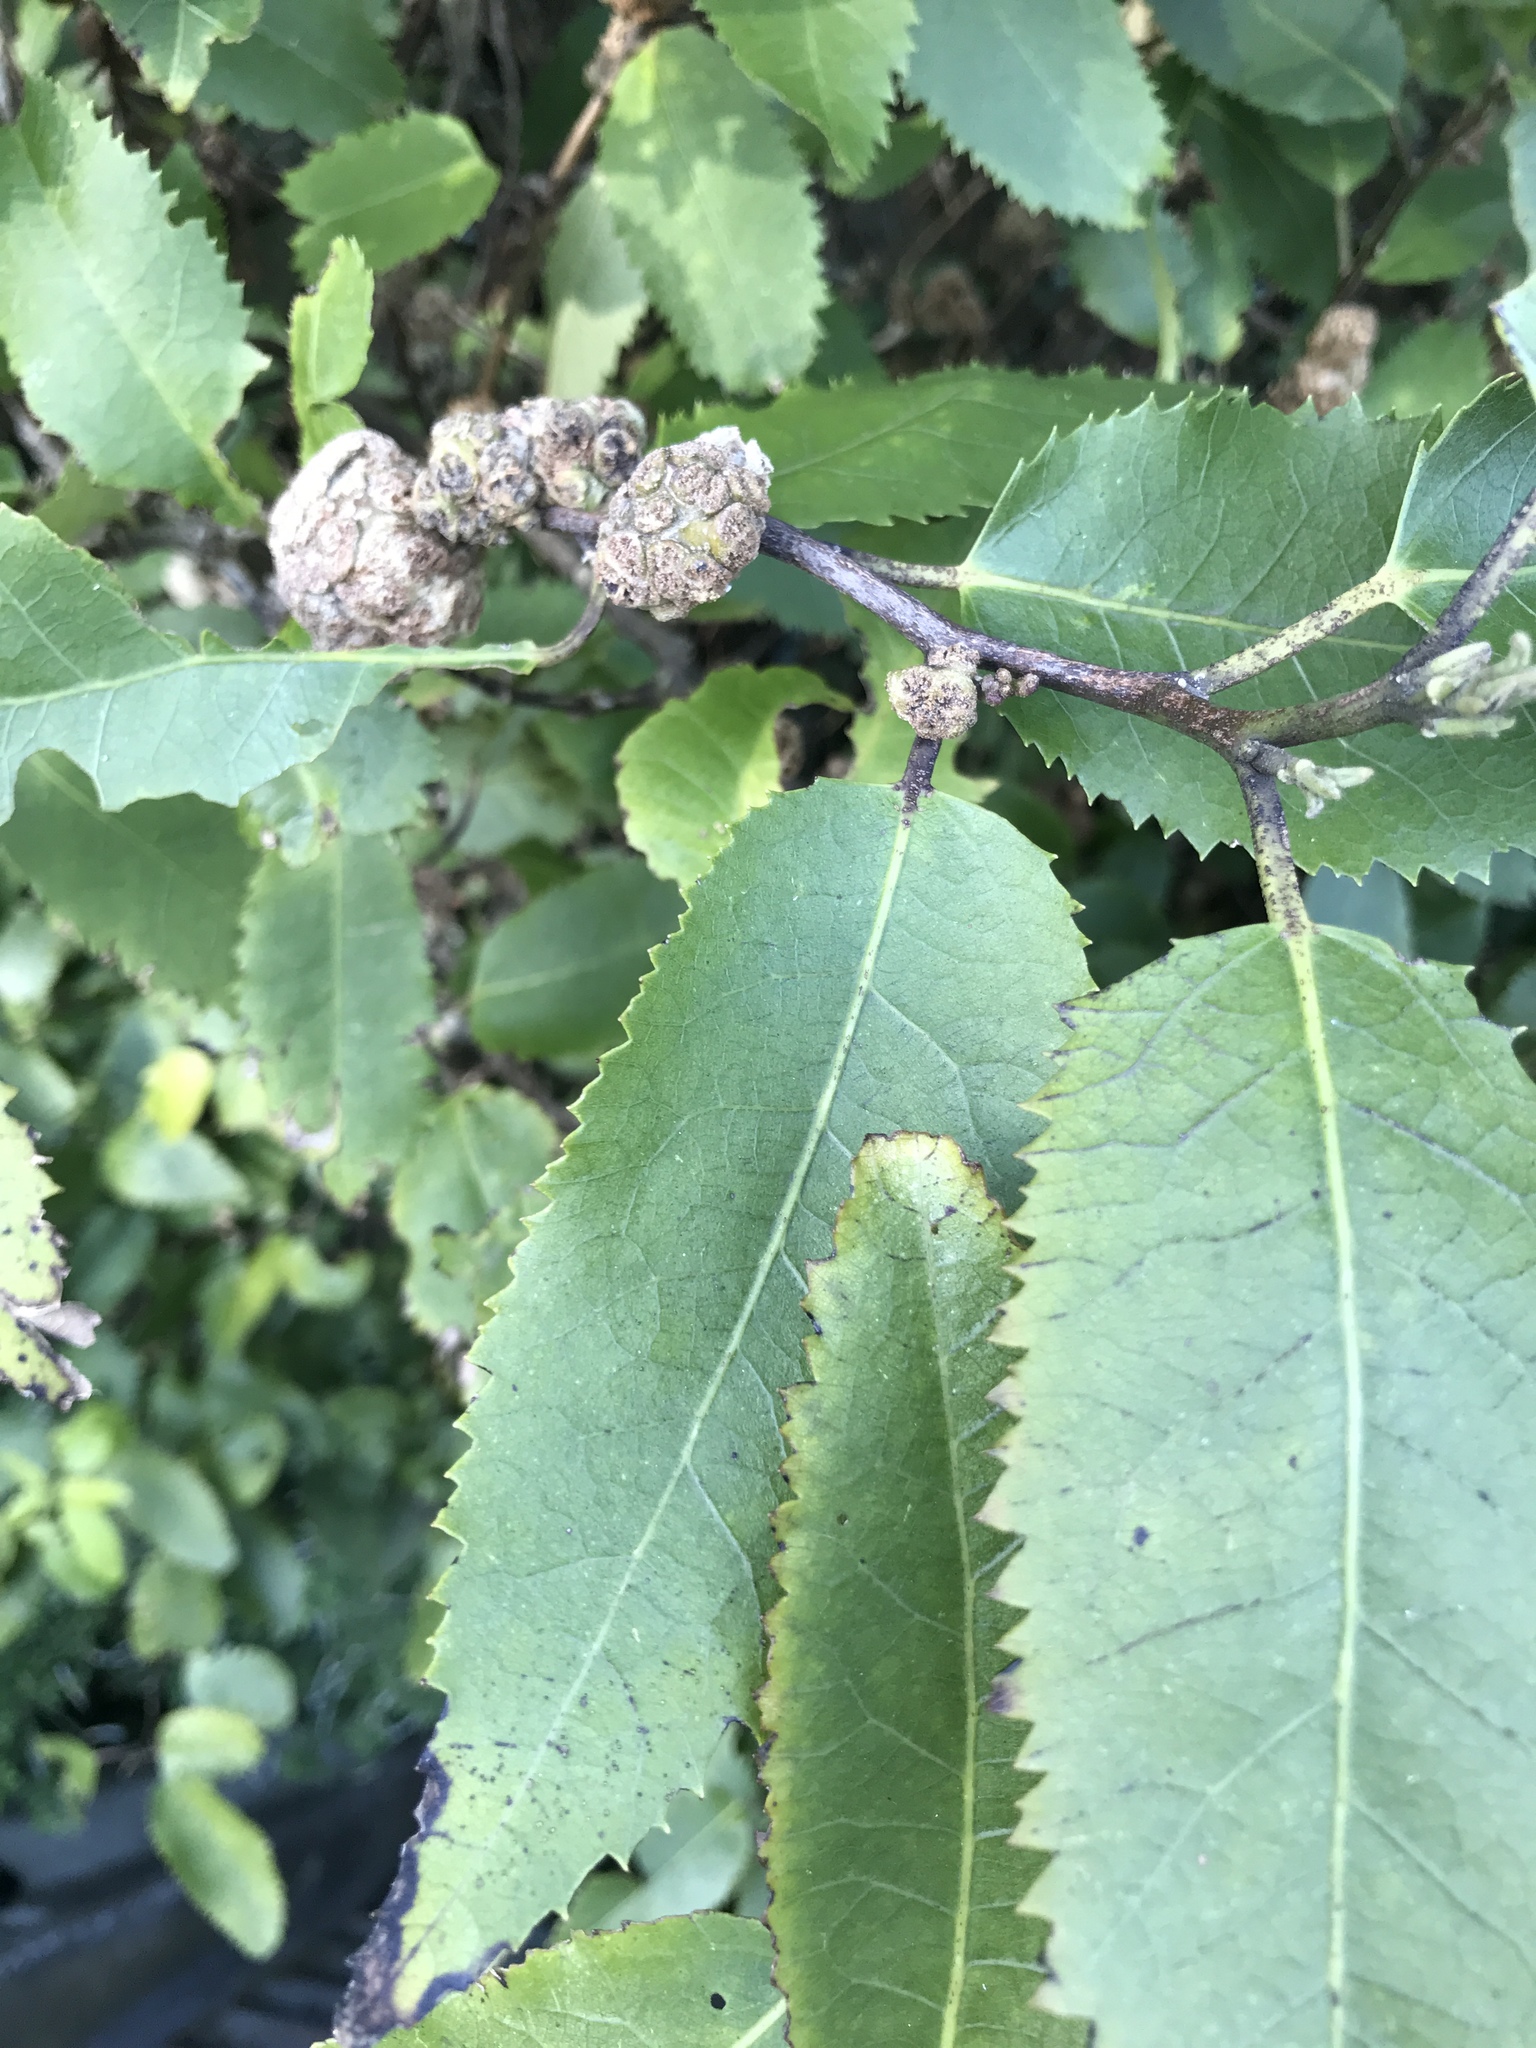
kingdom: Animalia
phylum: Arthropoda
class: Arachnida
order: Trombidiformes
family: Eriophyidae
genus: Eriophyes
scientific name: Eriophyes hoheriae
